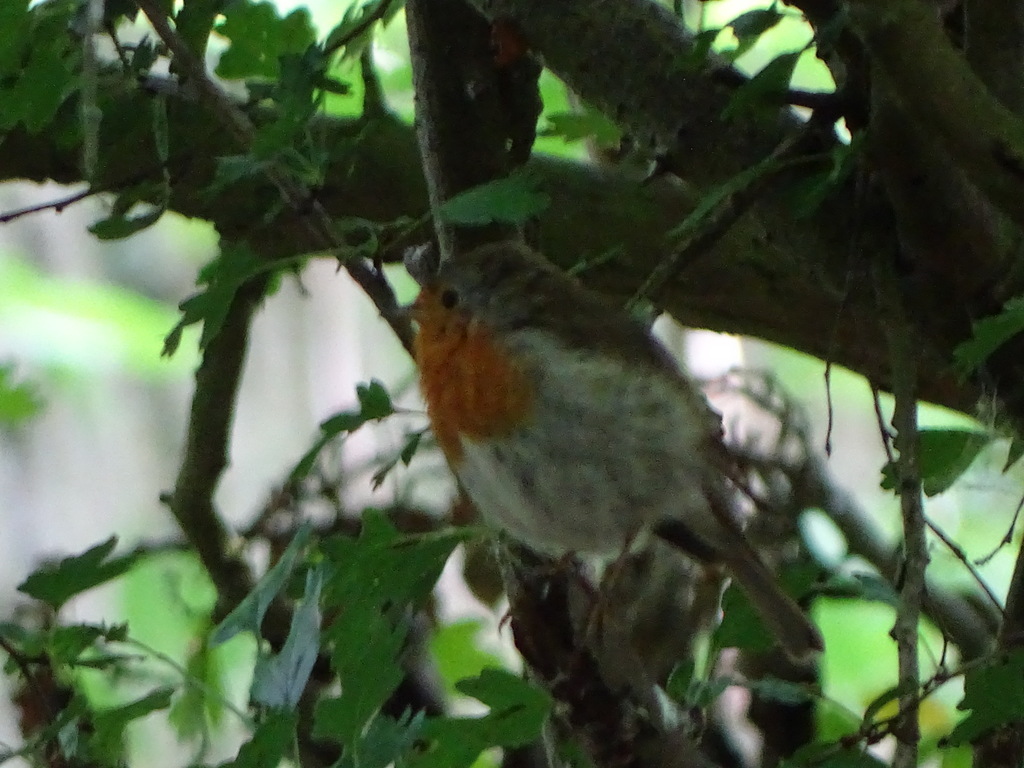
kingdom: Animalia
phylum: Chordata
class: Aves
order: Passeriformes
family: Muscicapidae
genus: Erithacus
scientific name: Erithacus rubecula
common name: European robin
